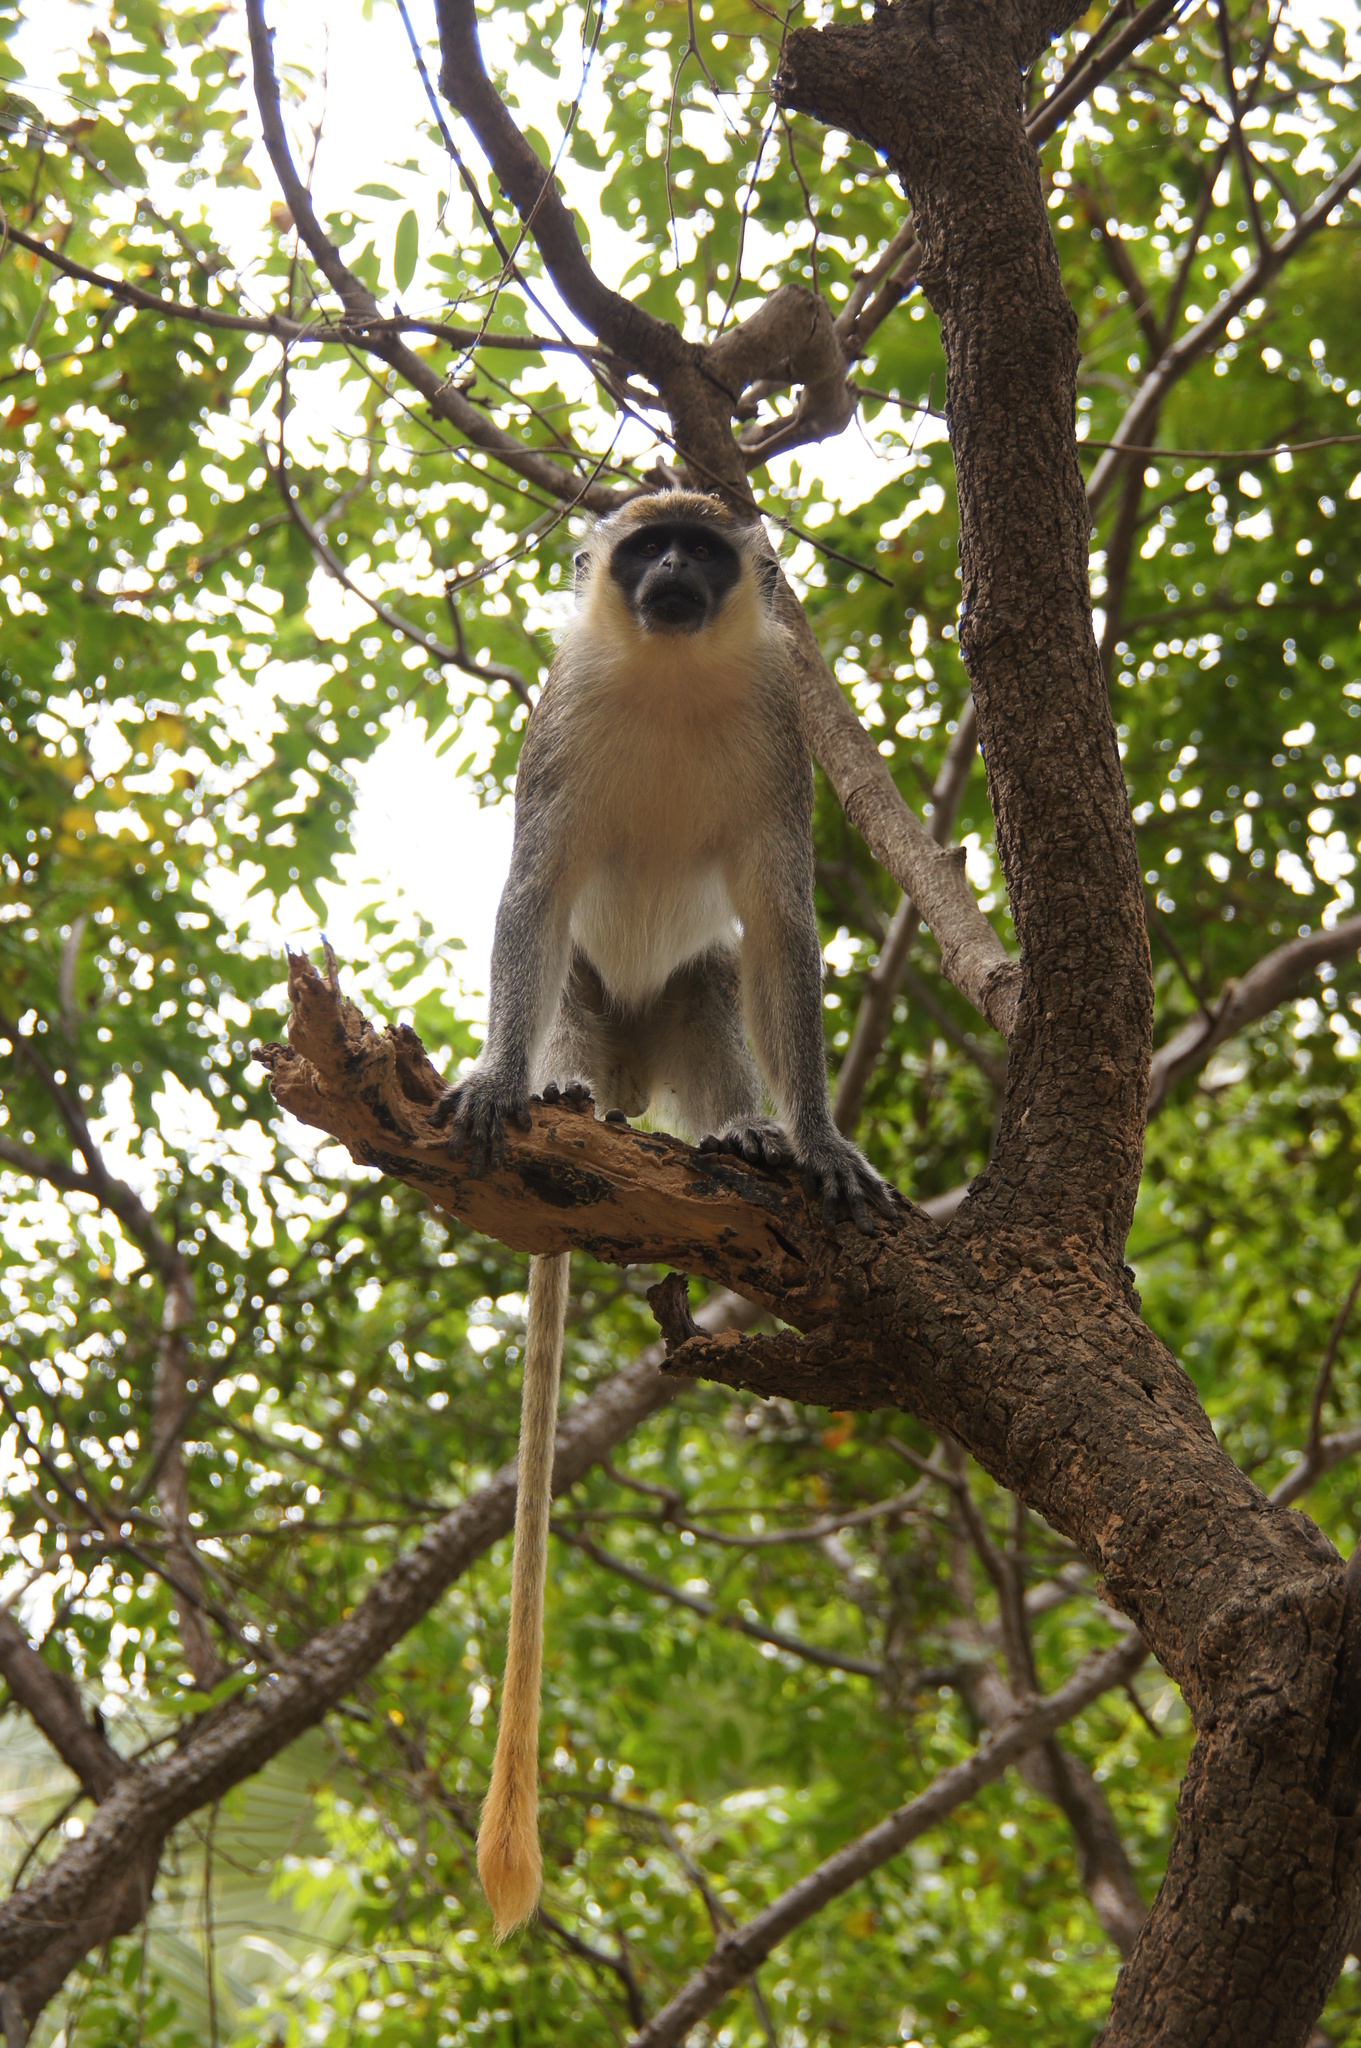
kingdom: Animalia
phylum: Chordata
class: Mammalia
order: Primates
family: Cercopithecidae
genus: Chlorocebus
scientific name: Chlorocebus sabaeus
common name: Green monkey
